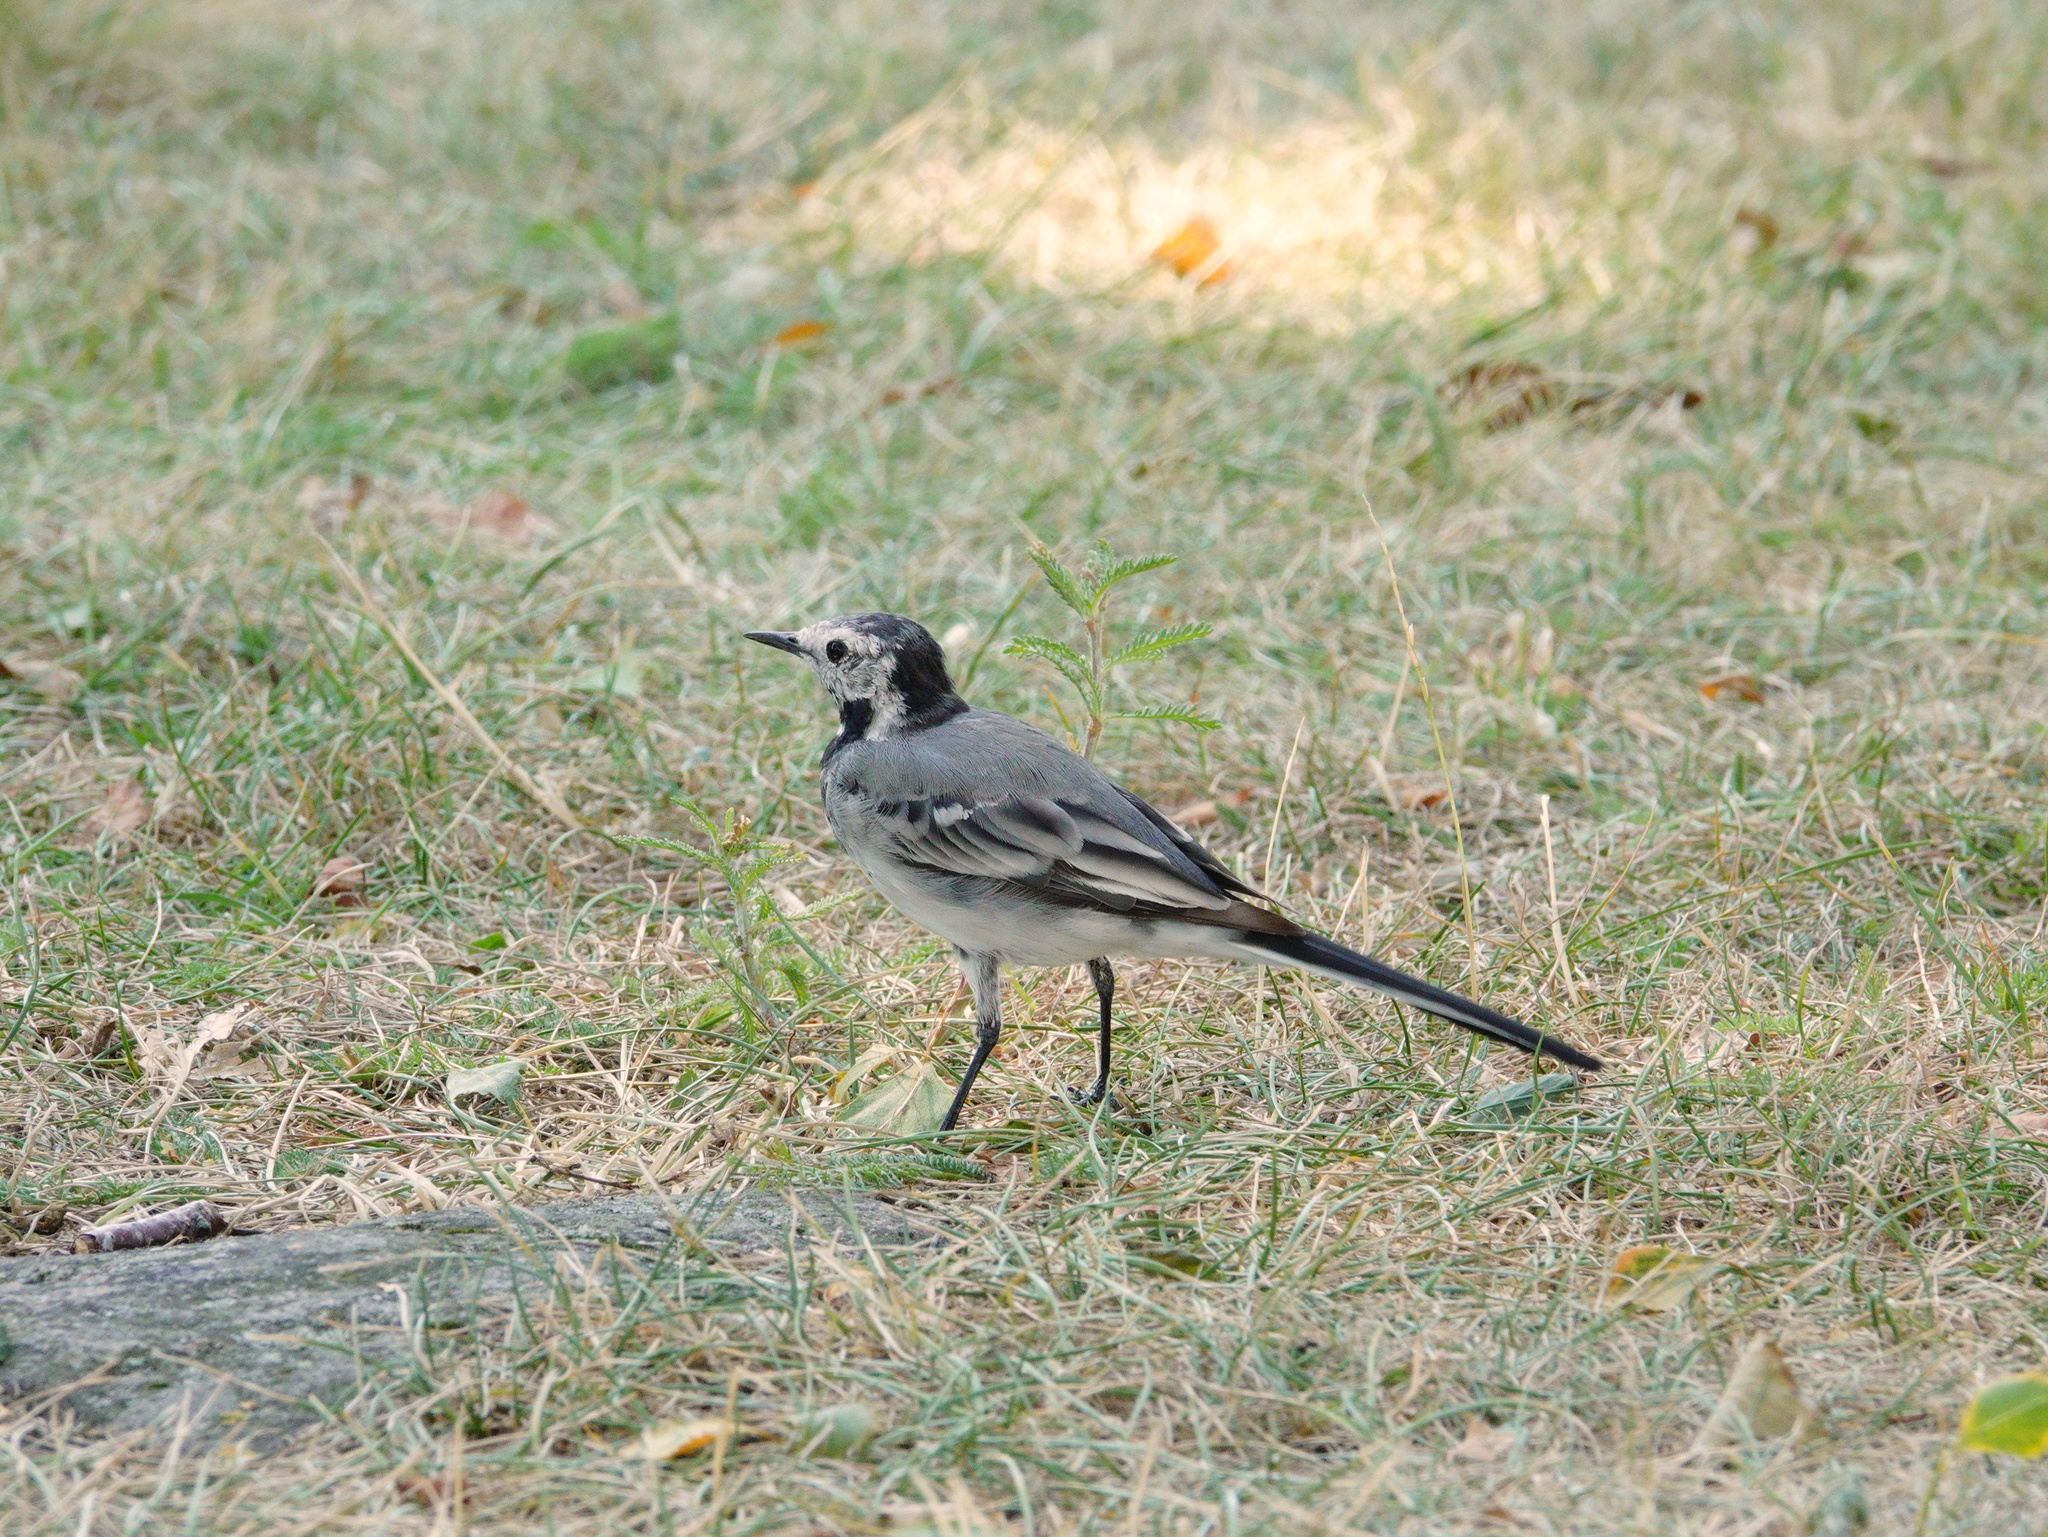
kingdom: Animalia
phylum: Chordata
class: Aves
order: Passeriformes
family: Motacillidae
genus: Motacilla
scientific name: Motacilla alba
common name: White wagtail
